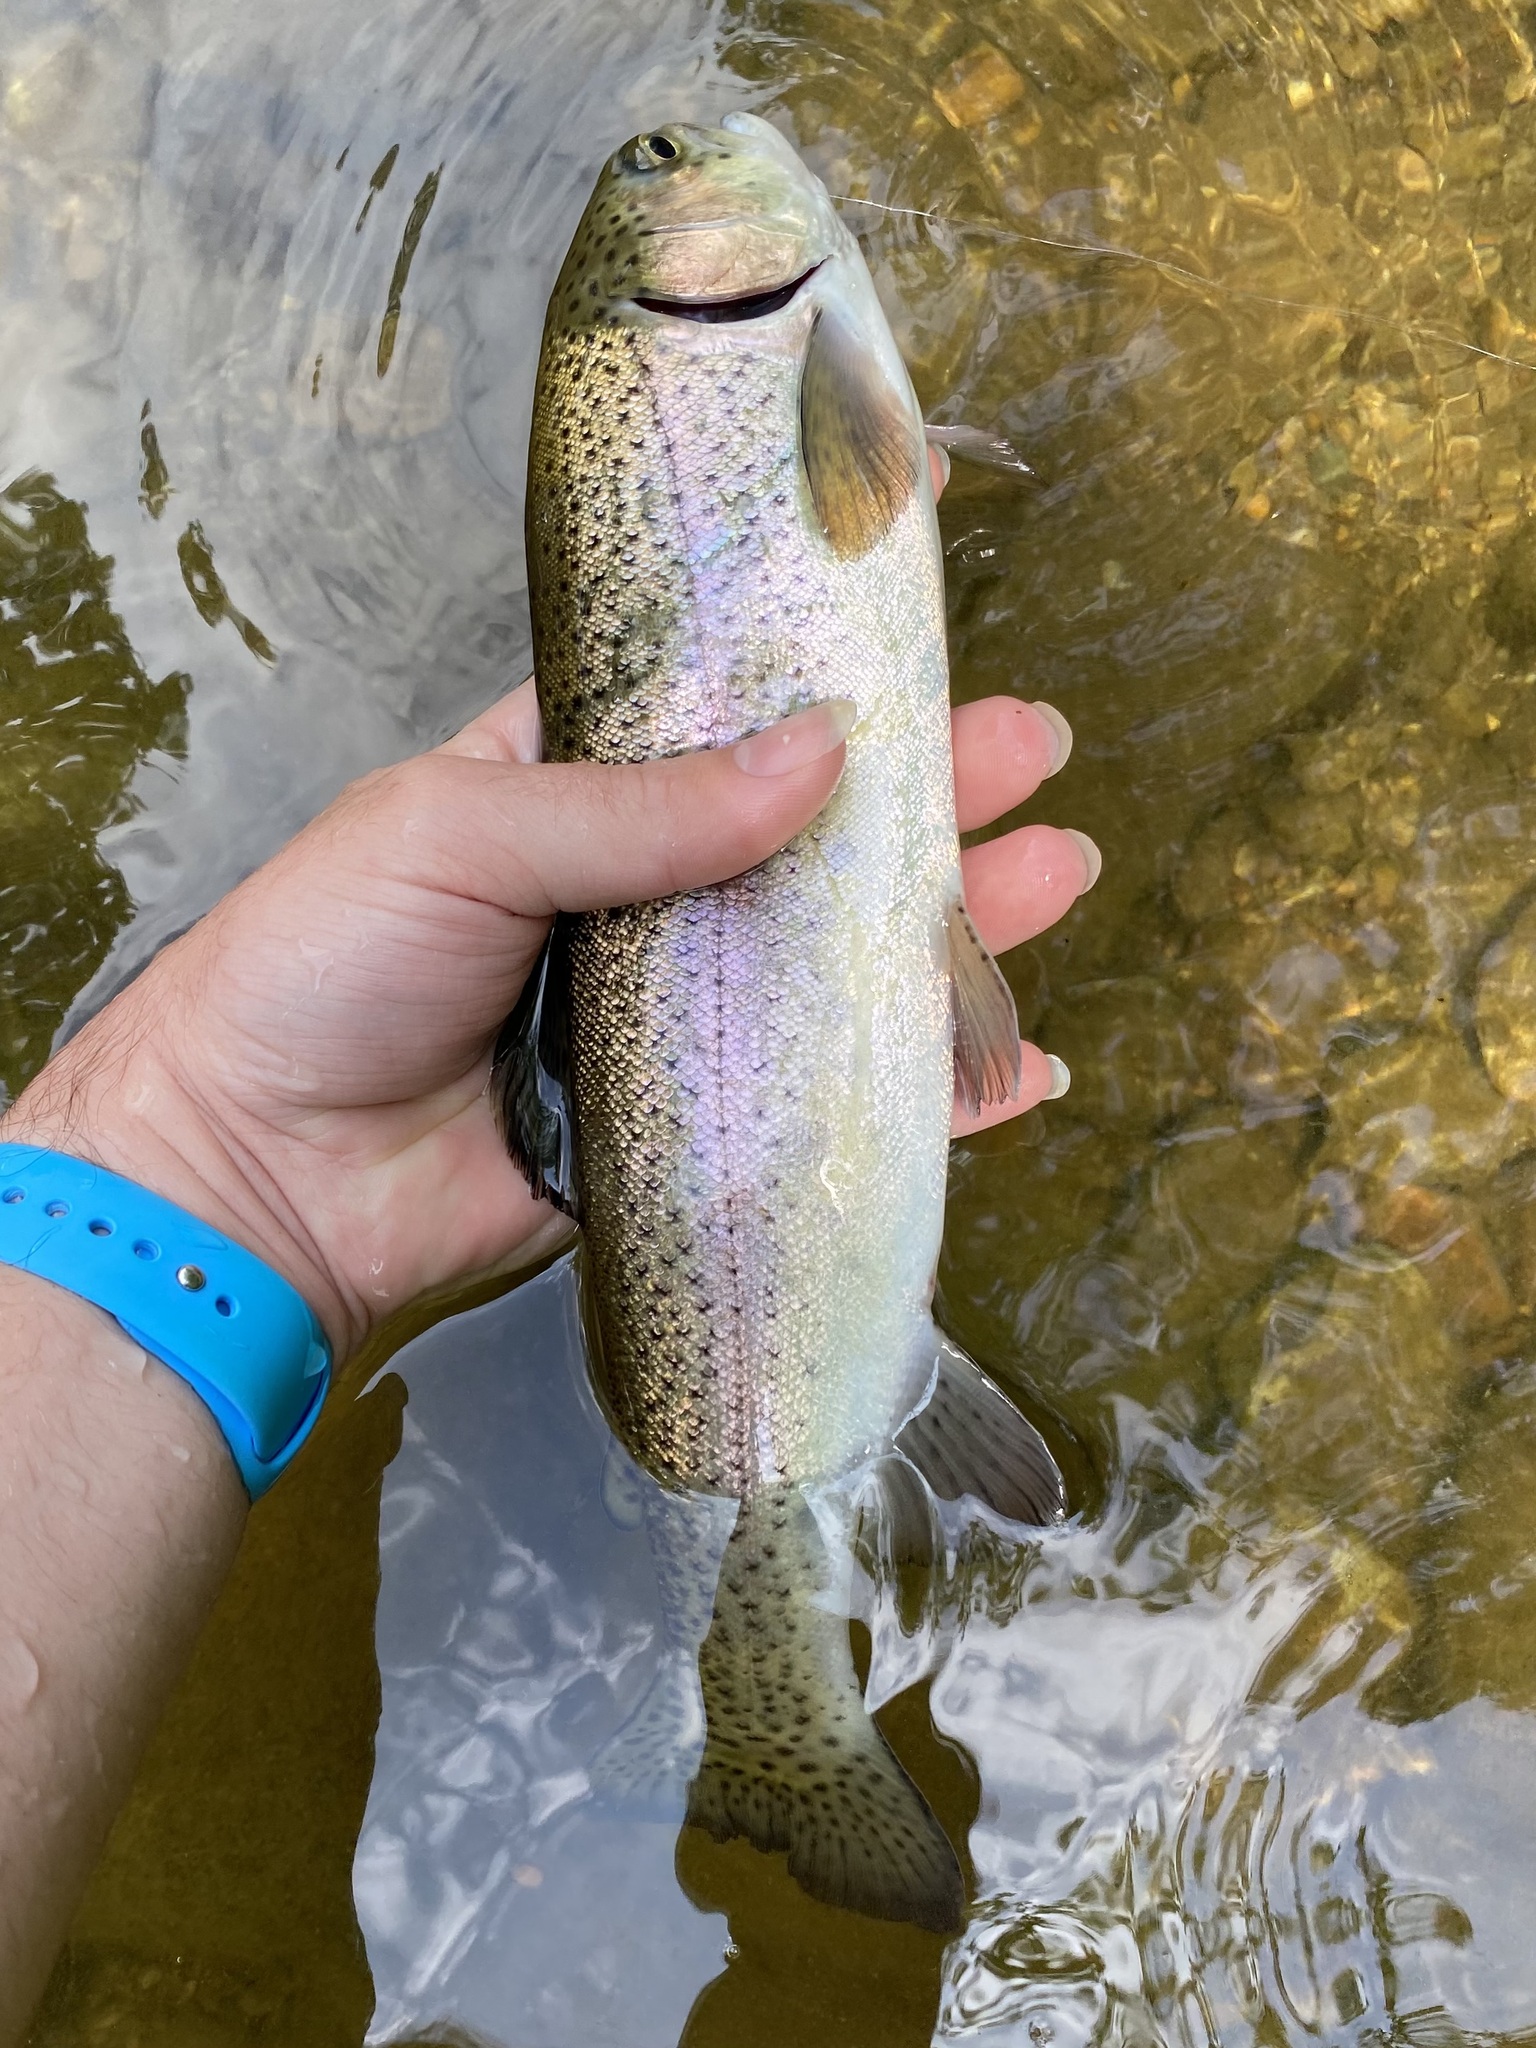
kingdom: Animalia
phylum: Chordata
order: Salmoniformes
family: Salmonidae
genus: Oncorhynchus
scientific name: Oncorhynchus mykiss
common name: Rainbow trout
